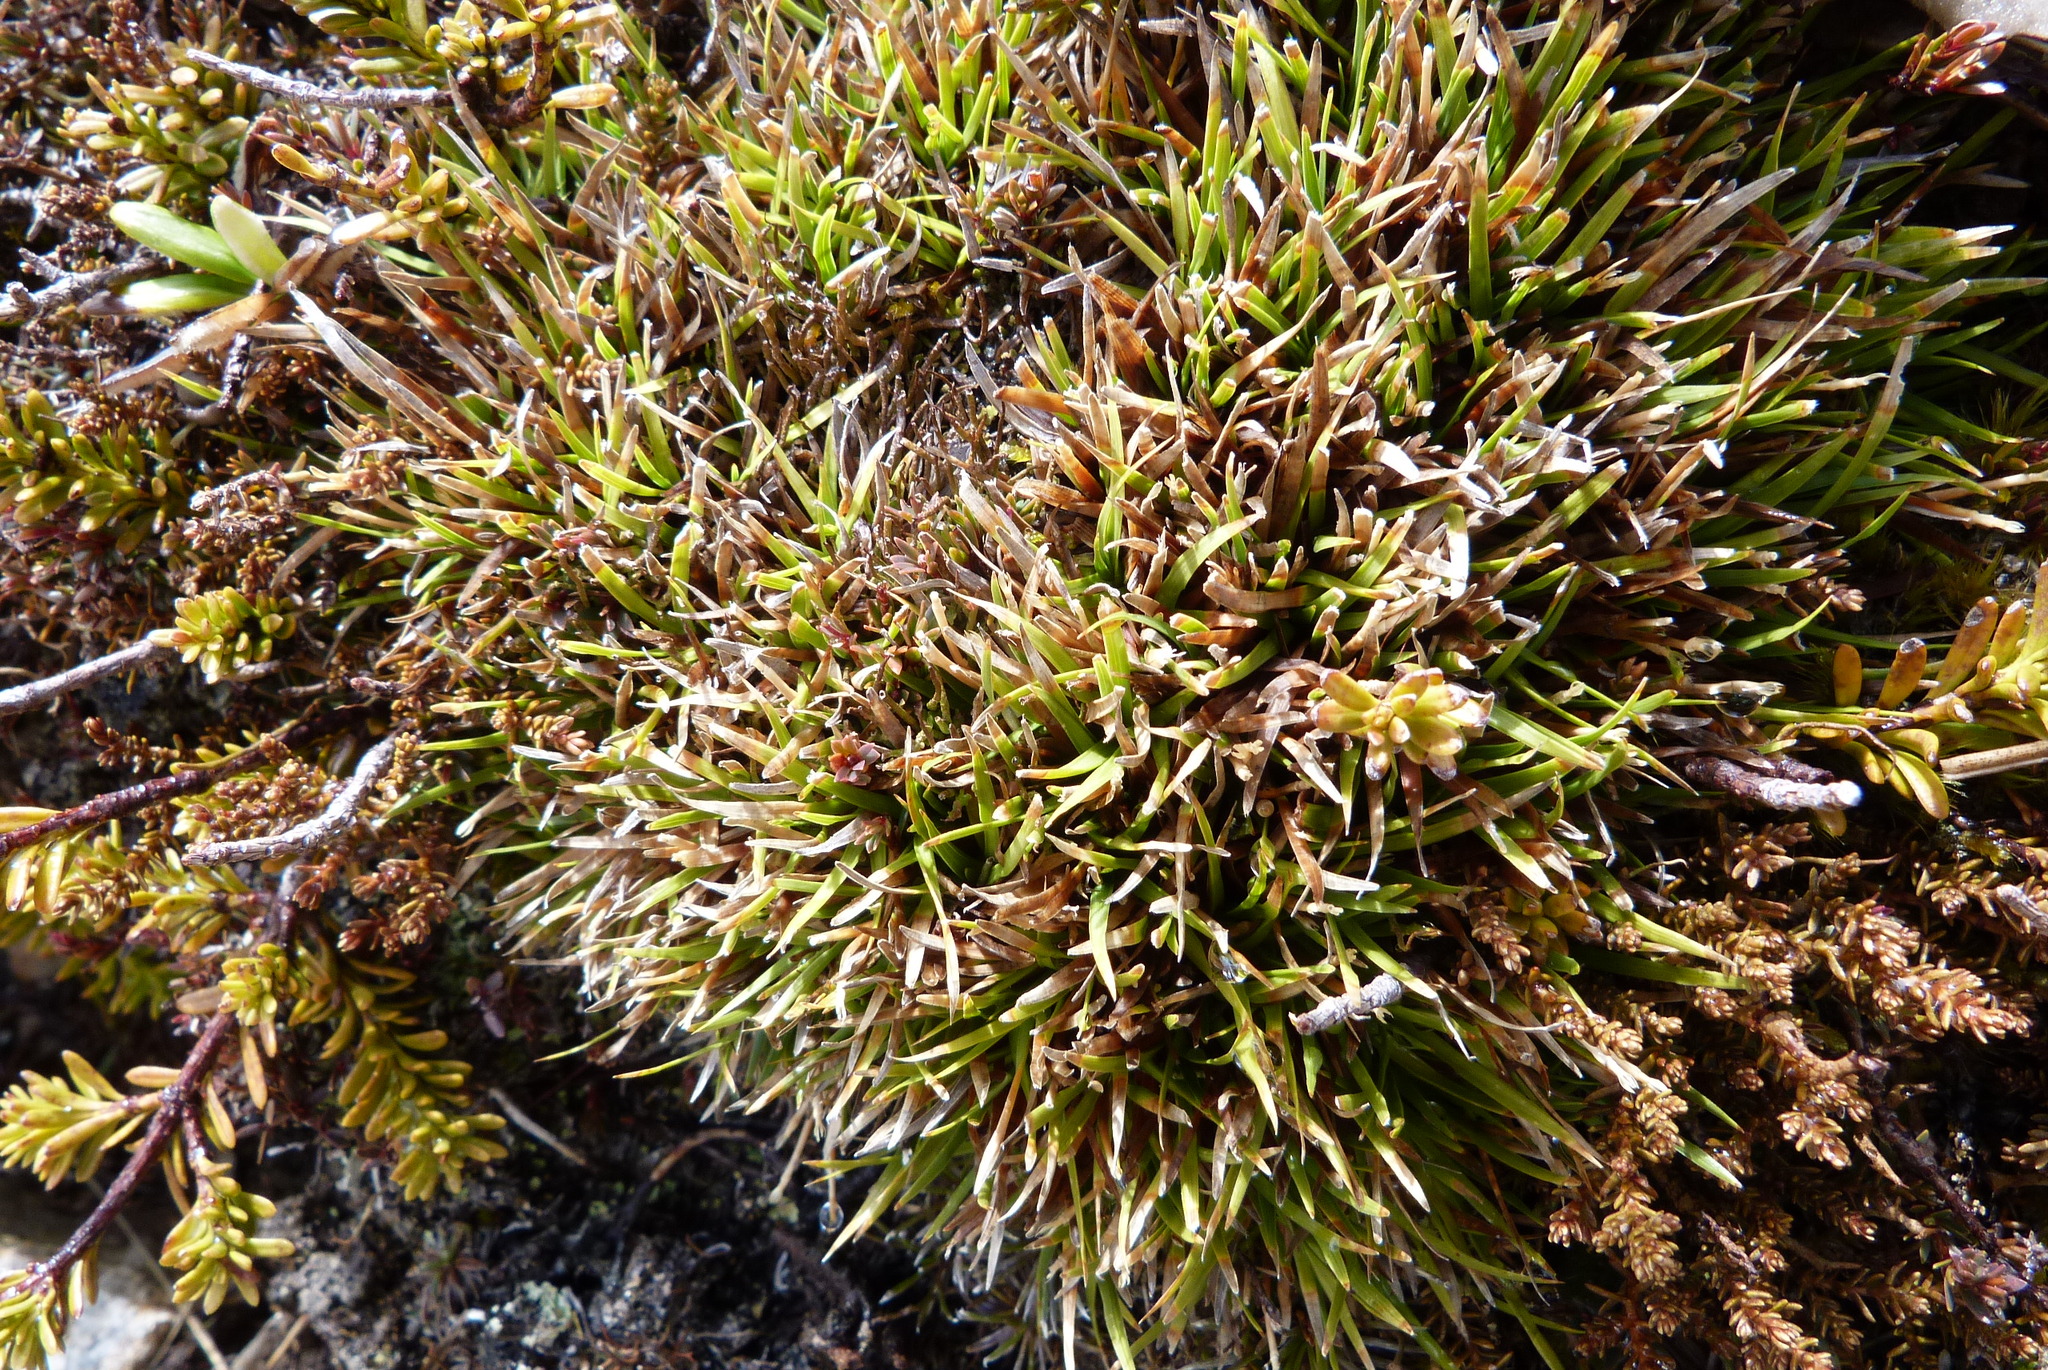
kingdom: Plantae
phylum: Tracheophyta
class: Liliopsida
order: Poales
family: Cyperaceae
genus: Oreobolus
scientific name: Oreobolus impar
